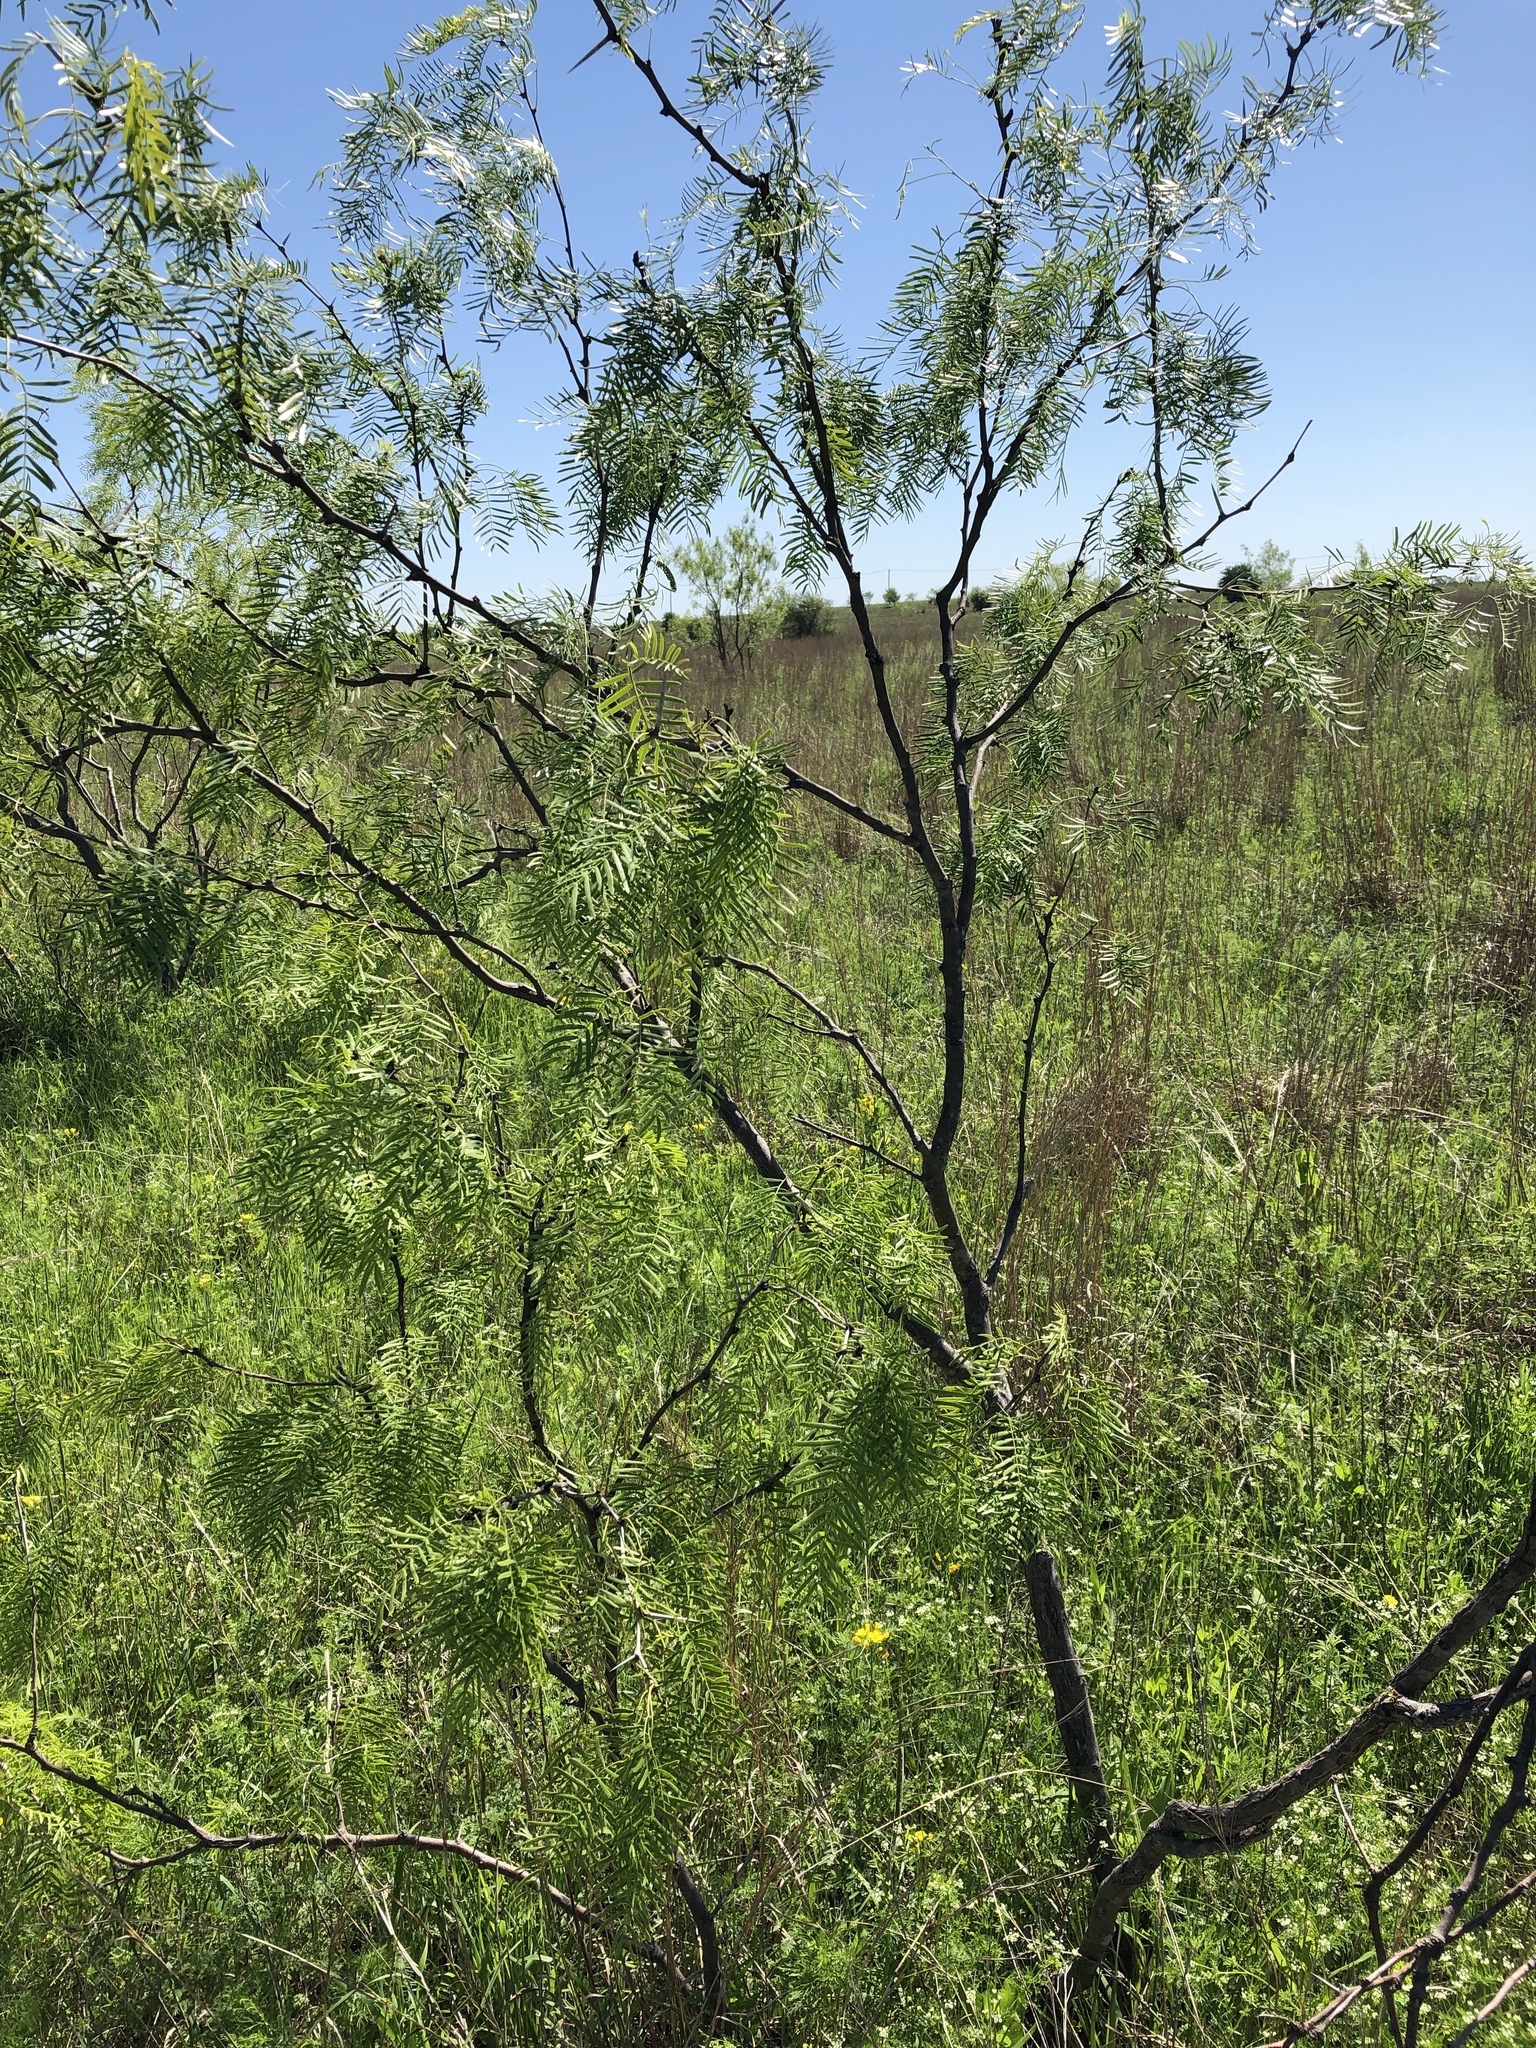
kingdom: Plantae
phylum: Tracheophyta
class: Magnoliopsida
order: Fabales
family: Fabaceae
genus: Prosopis
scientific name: Prosopis glandulosa
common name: Honey mesquite
